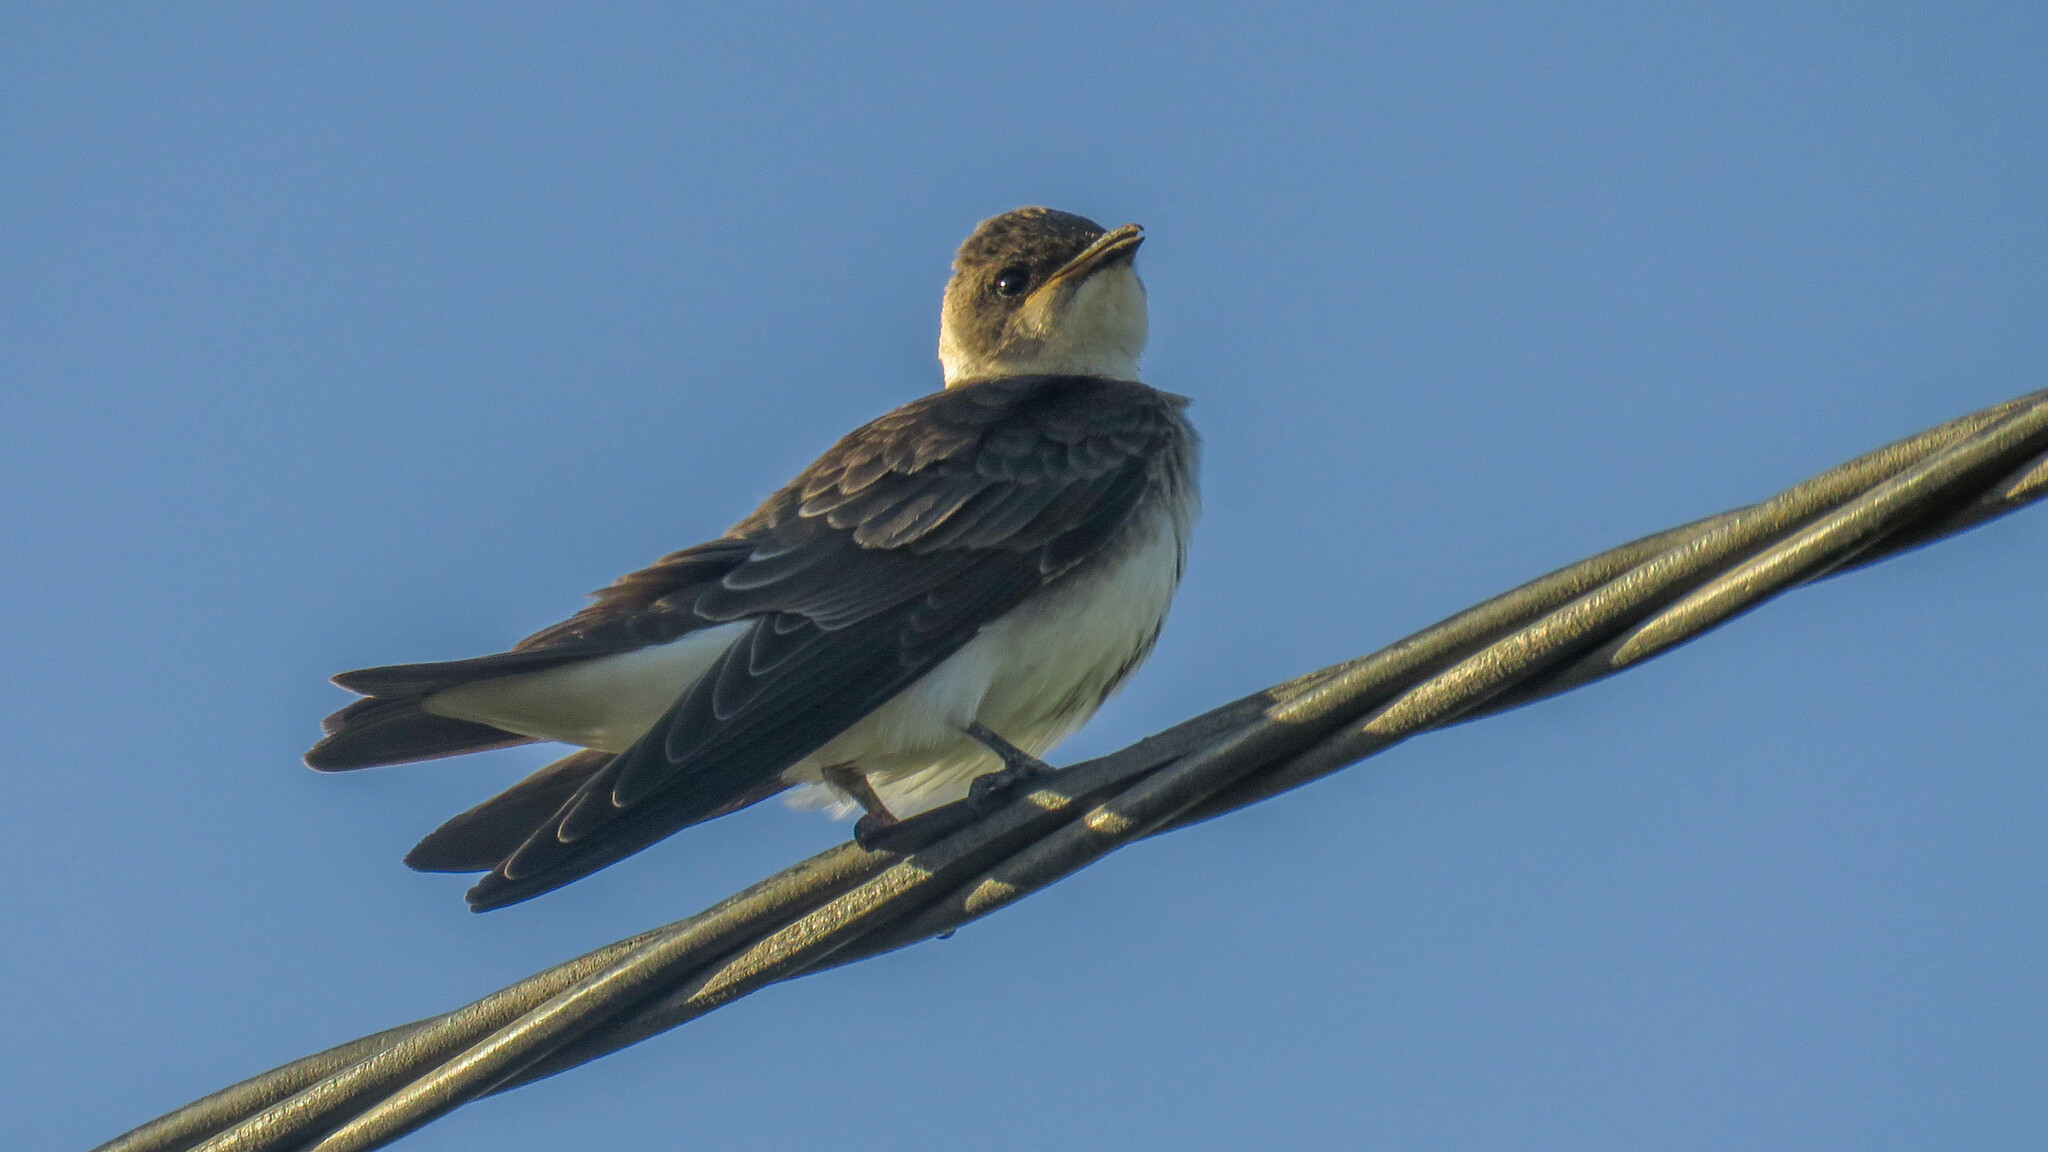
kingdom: Animalia
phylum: Chordata
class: Aves
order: Passeriformes
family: Hirundinidae
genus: Progne
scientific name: Progne tapera
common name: Brown-chested martin
